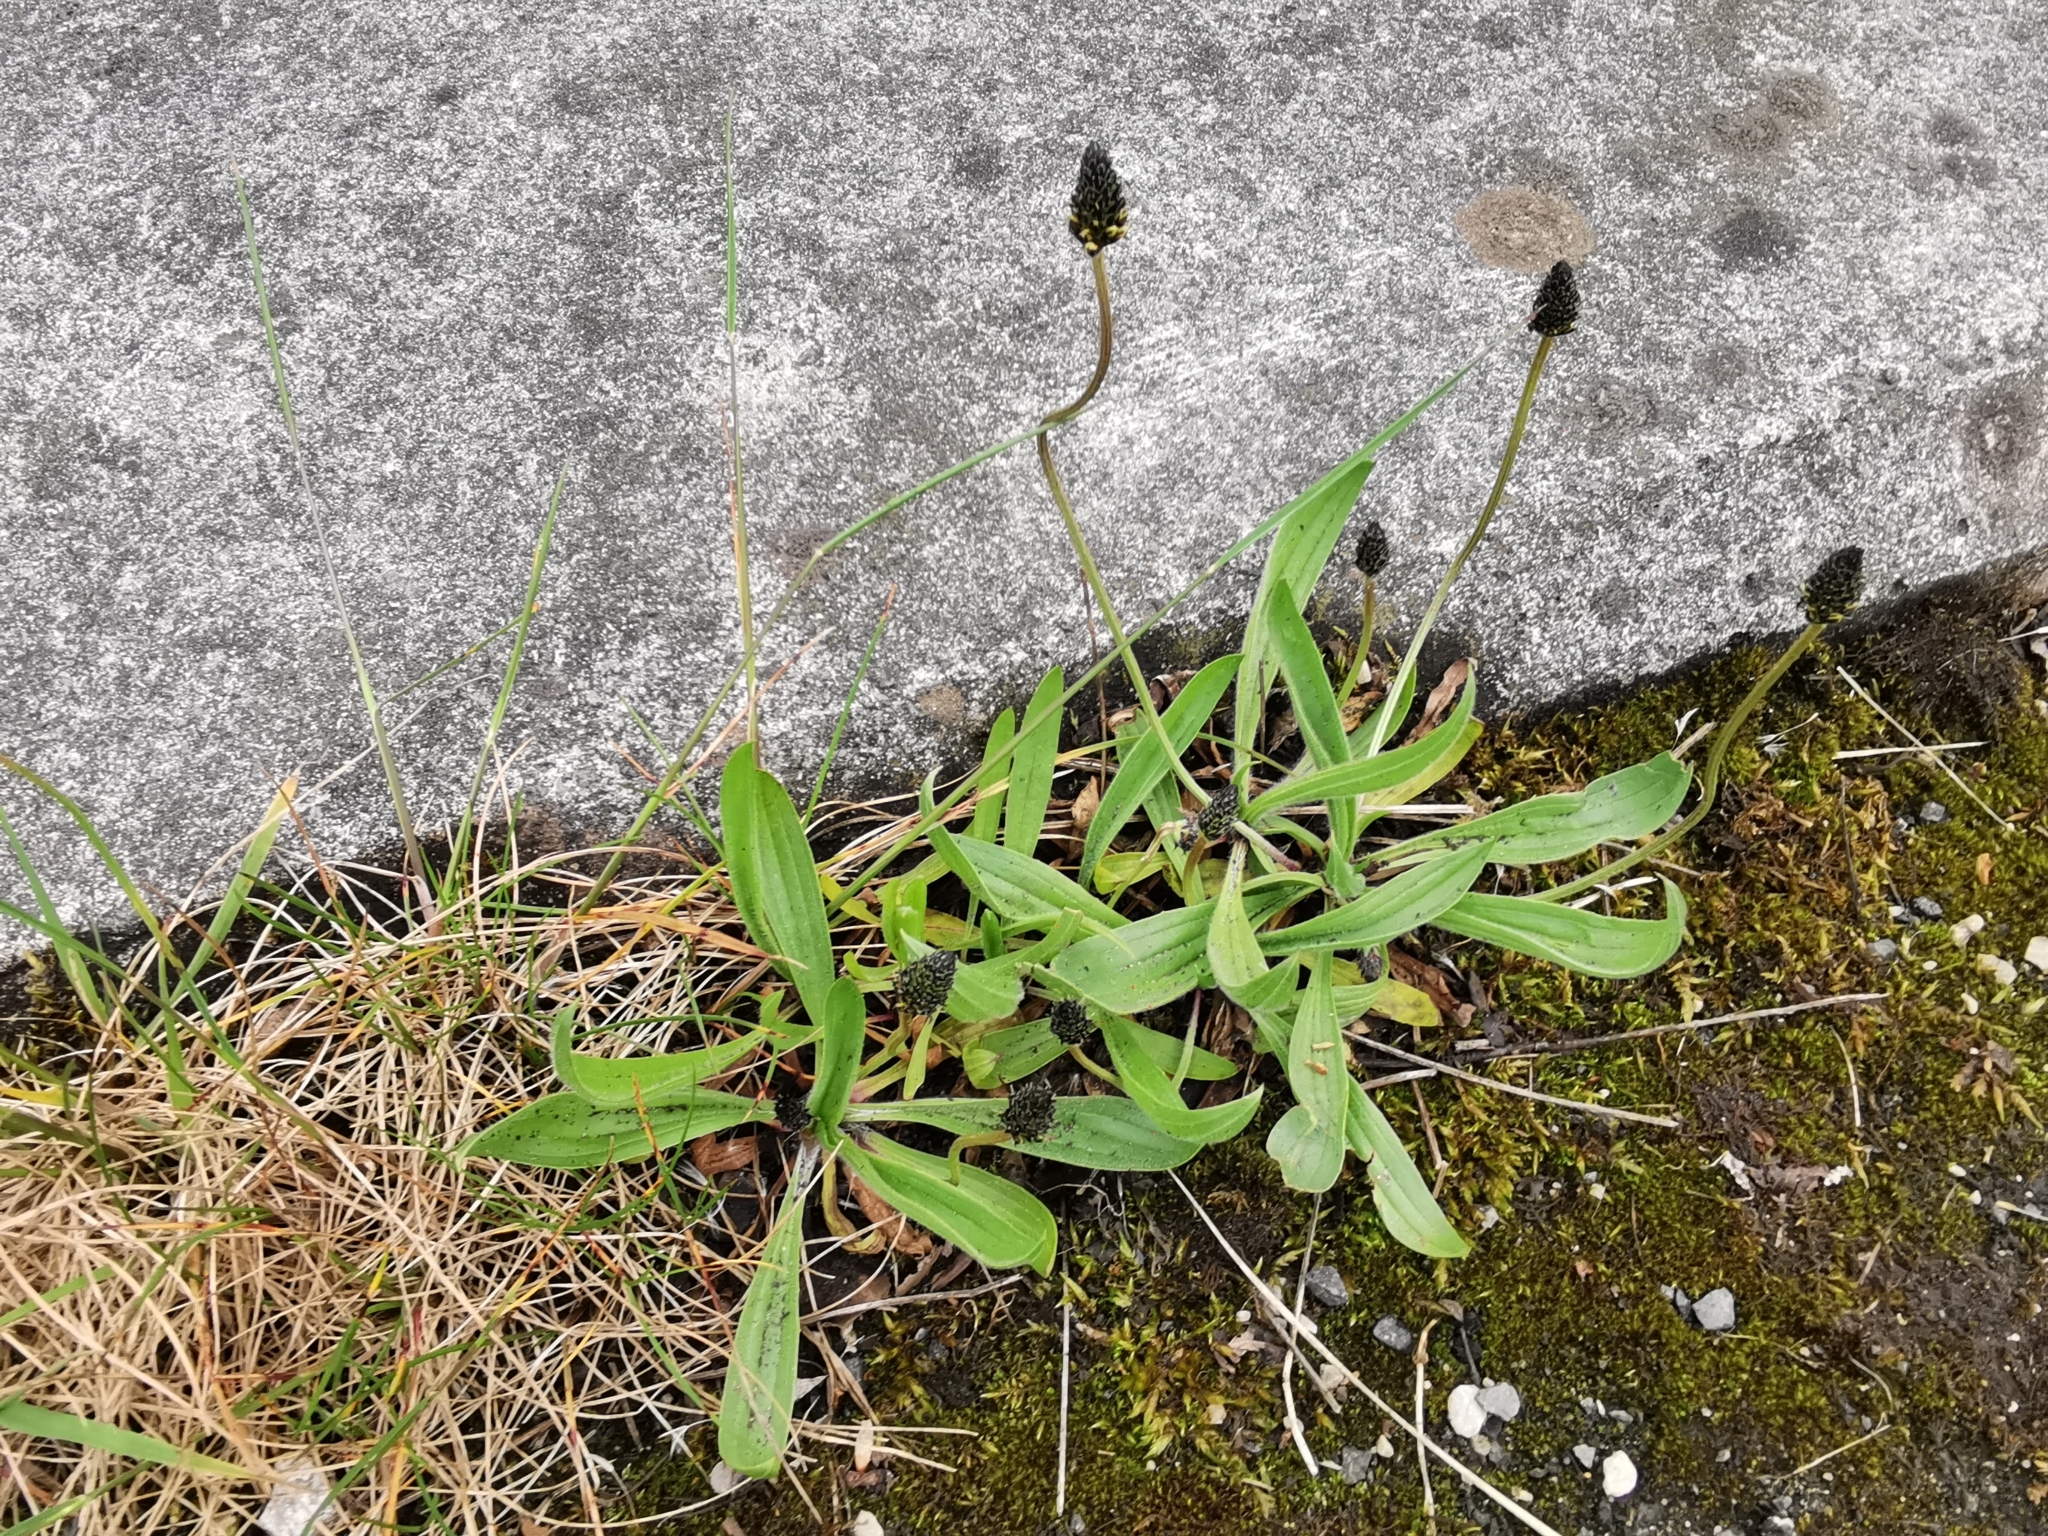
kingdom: Plantae
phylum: Tracheophyta
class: Magnoliopsida
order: Lamiales
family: Plantaginaceae
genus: Plantago
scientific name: Plantago lanceolata
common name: Ribwort plantain
